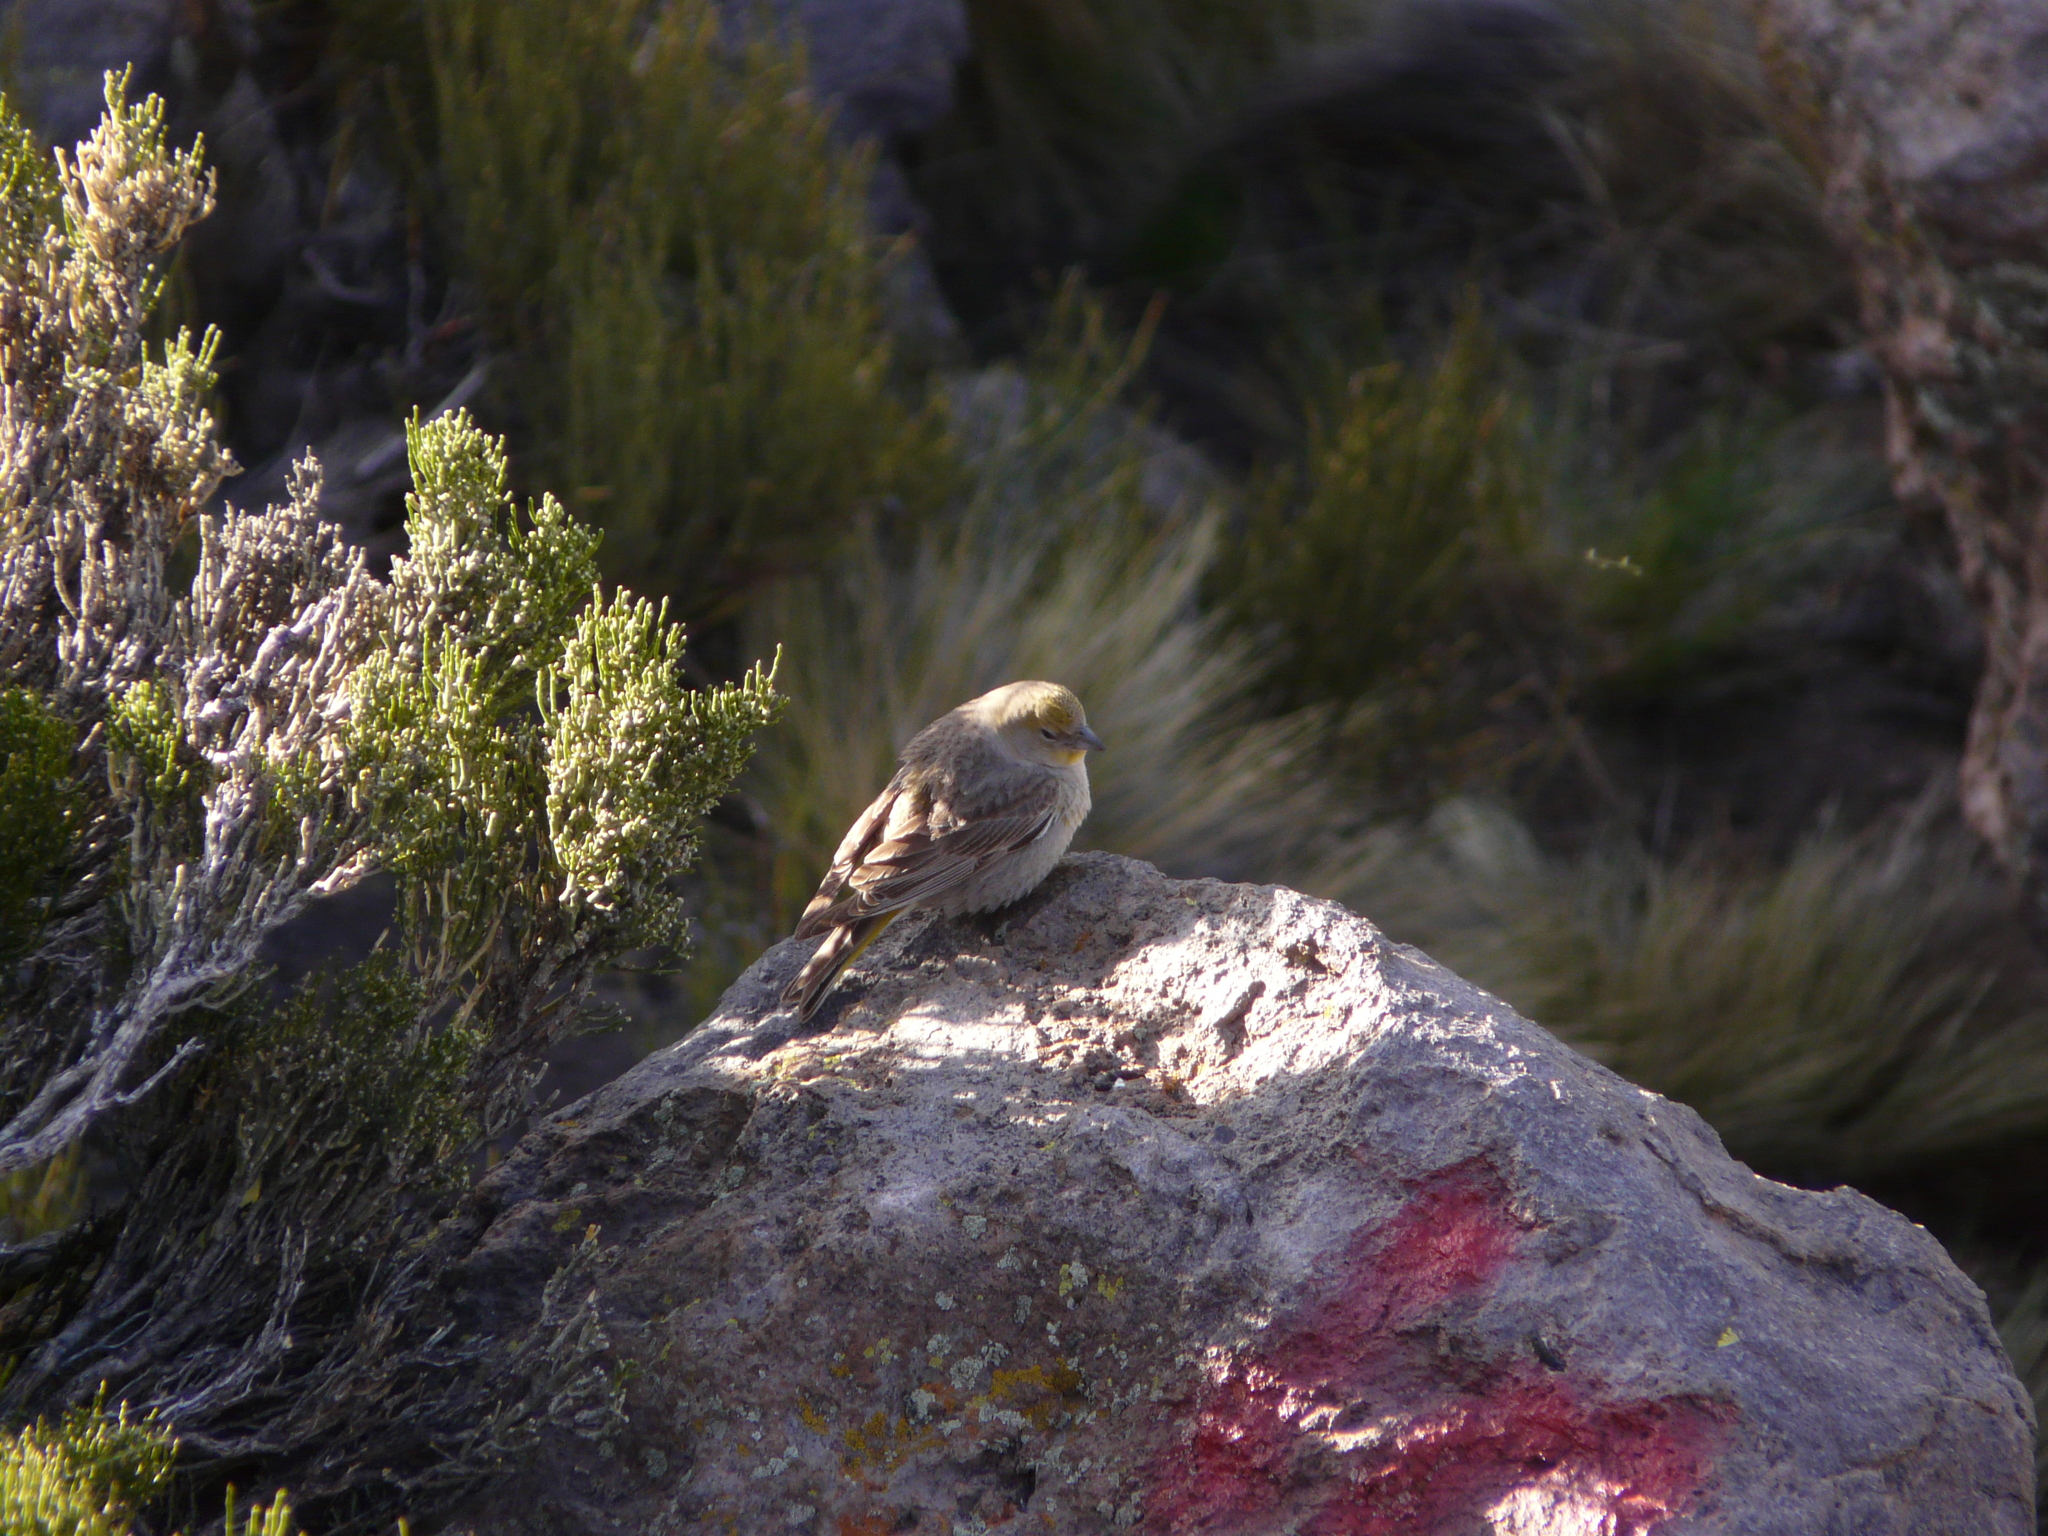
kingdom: Animalia
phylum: Chordata
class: Aves
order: Passeriformes
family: Thraupidae
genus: Sicalis
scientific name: Sicalis luteola
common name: Grassland yellow-finch
